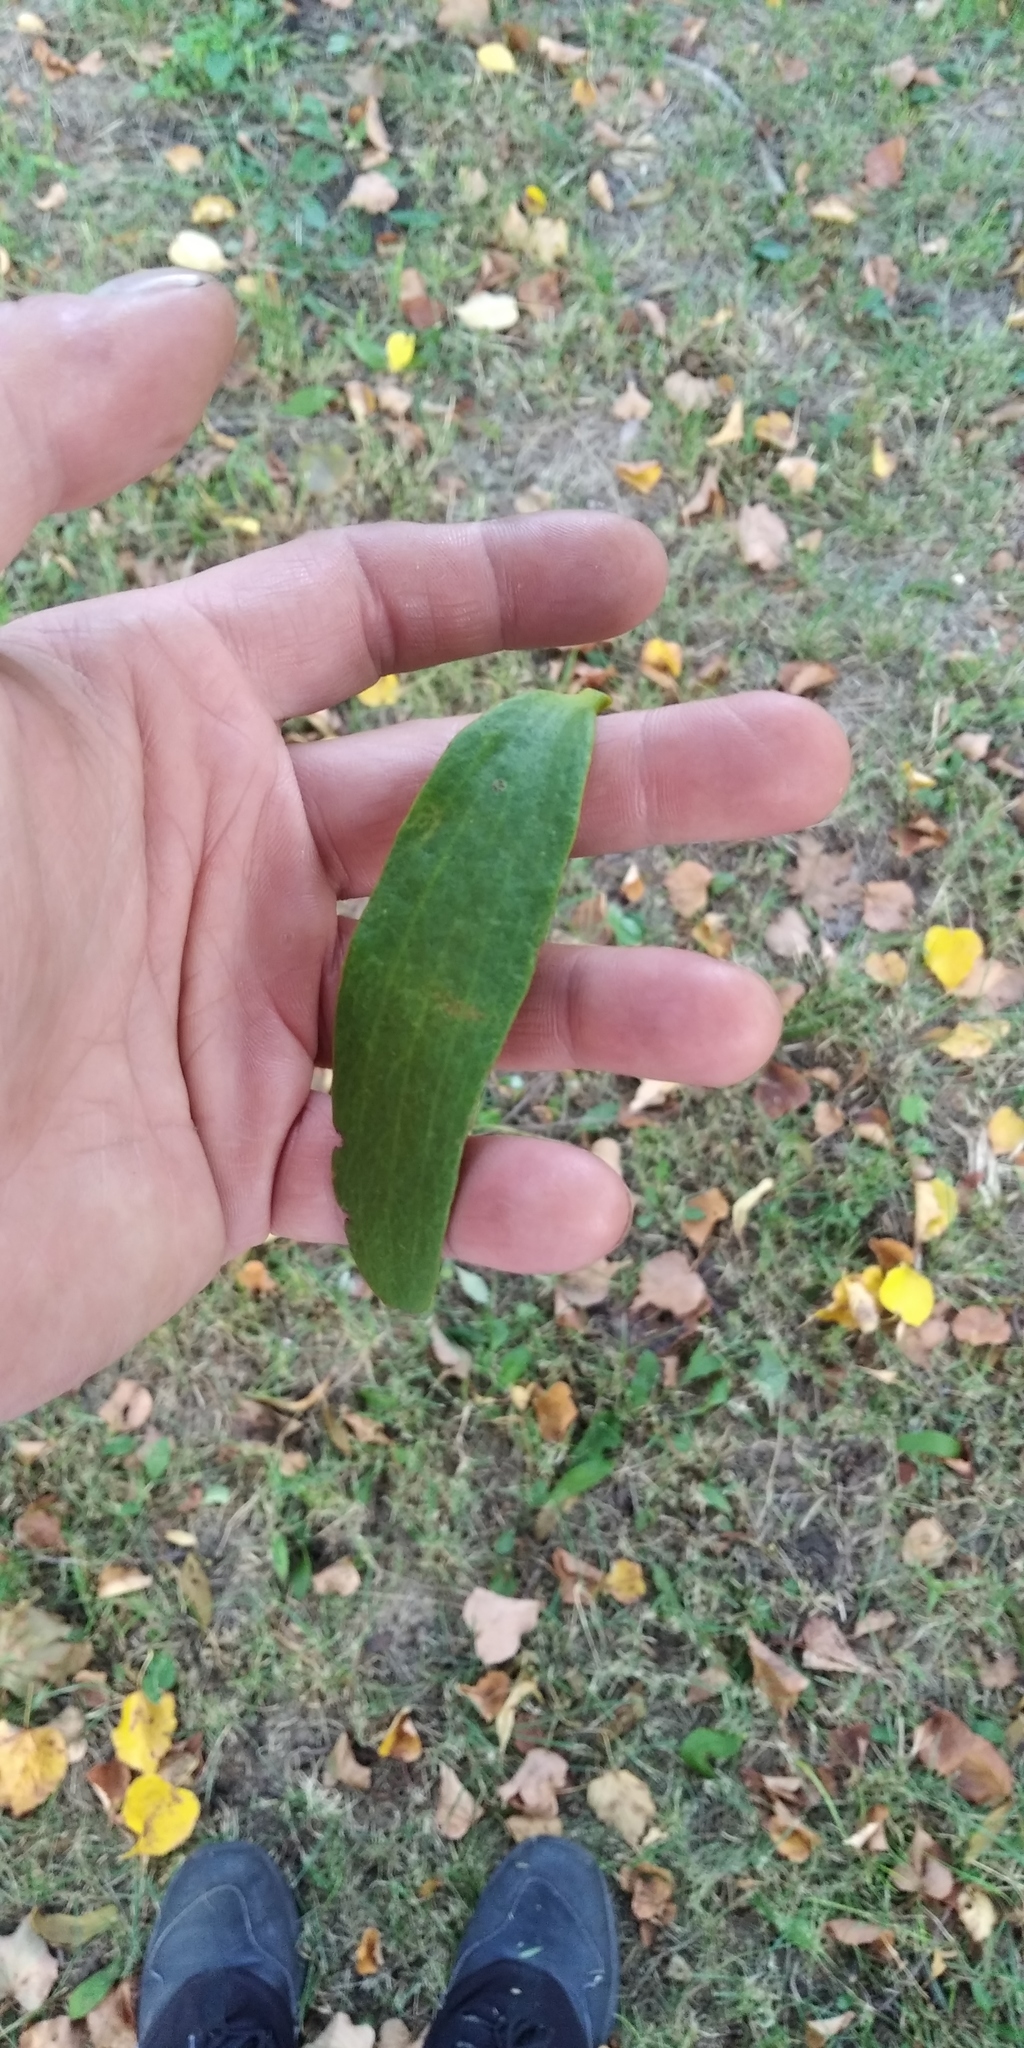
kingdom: Plantae
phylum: Tracheophyta
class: Magnoliopsida
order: Santalales
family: Viscaceae
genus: Viscum
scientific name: Viscum album
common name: Mistletoe
